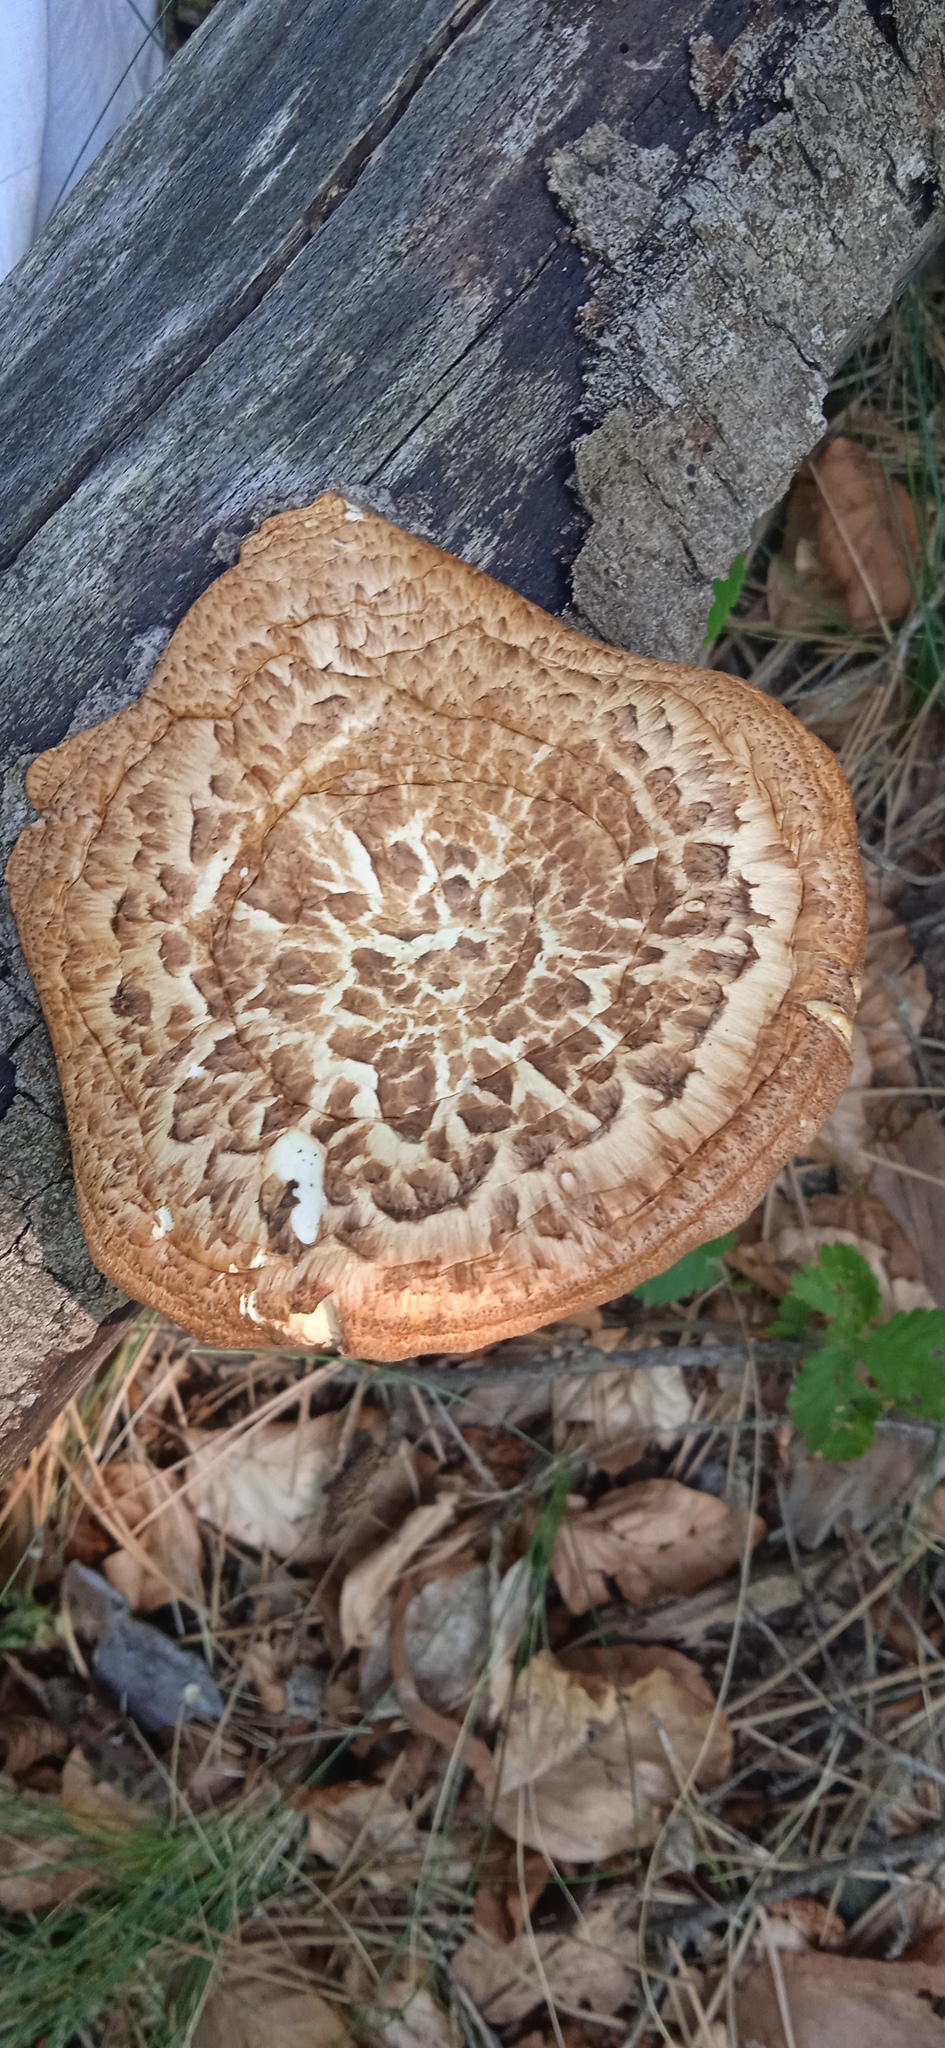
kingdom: Fungi
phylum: Basidiomycota
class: Agaricomycetes
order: Polyporales
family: Polyporaceae
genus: Cerioporus
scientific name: Cerioporus squamosus
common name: Dryad's saddle
